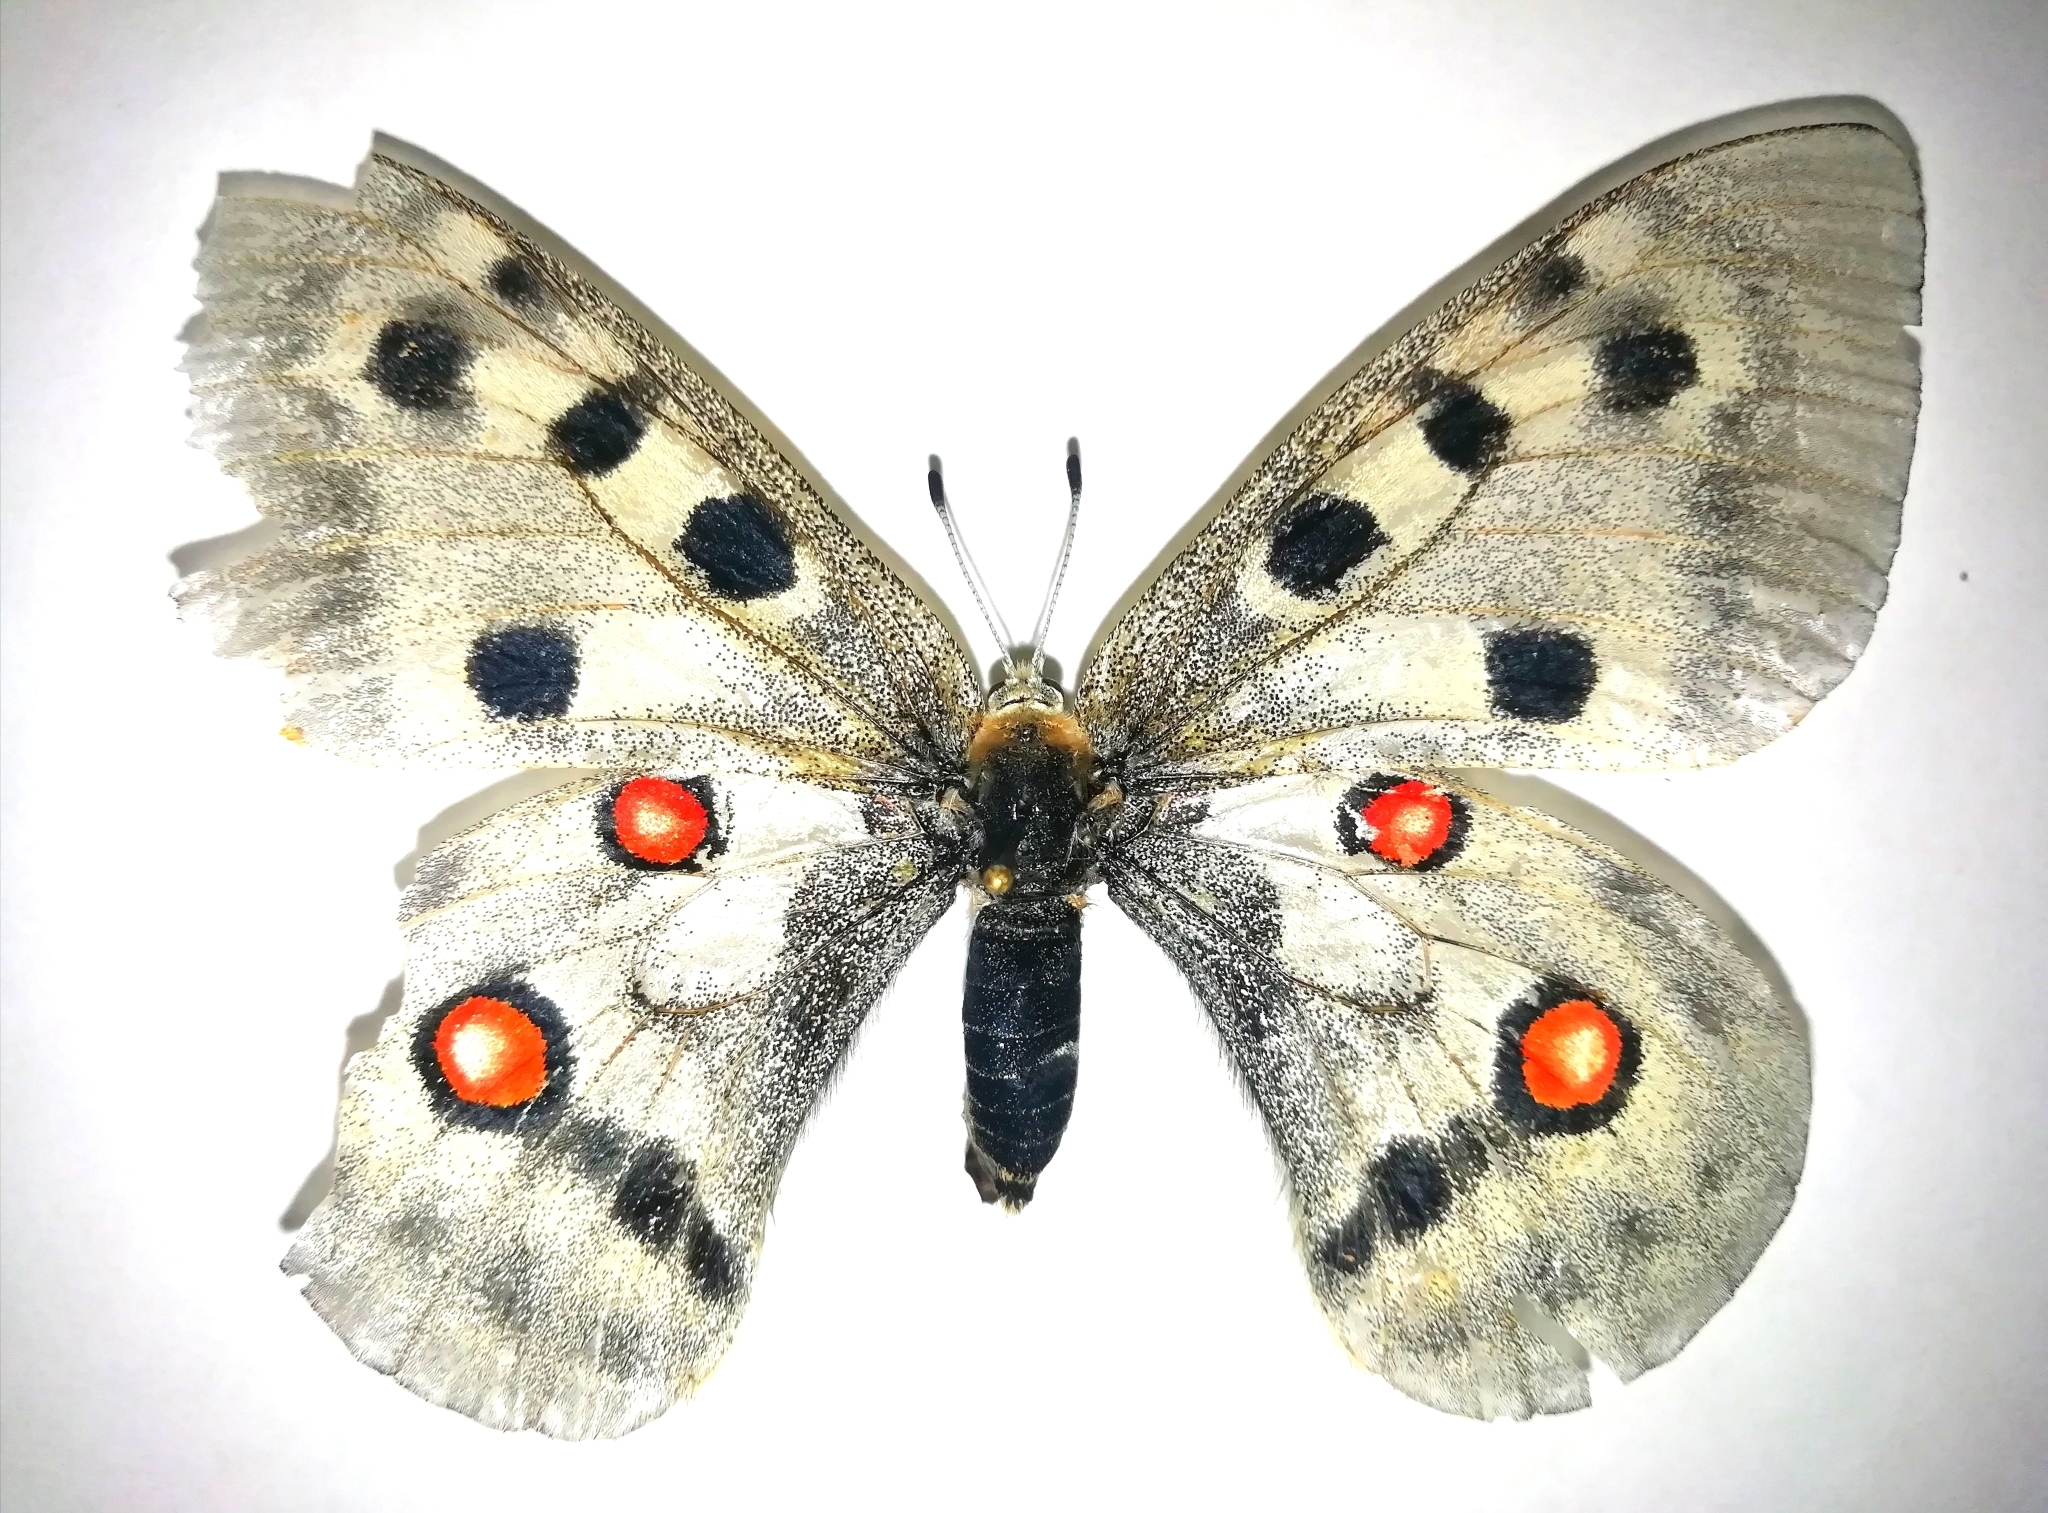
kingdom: Animalia
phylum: Arthropoda
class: Insecta
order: Lepidoptera
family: Papilionidae
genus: Parnassius
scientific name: Parnassius apollo
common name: Apollo
